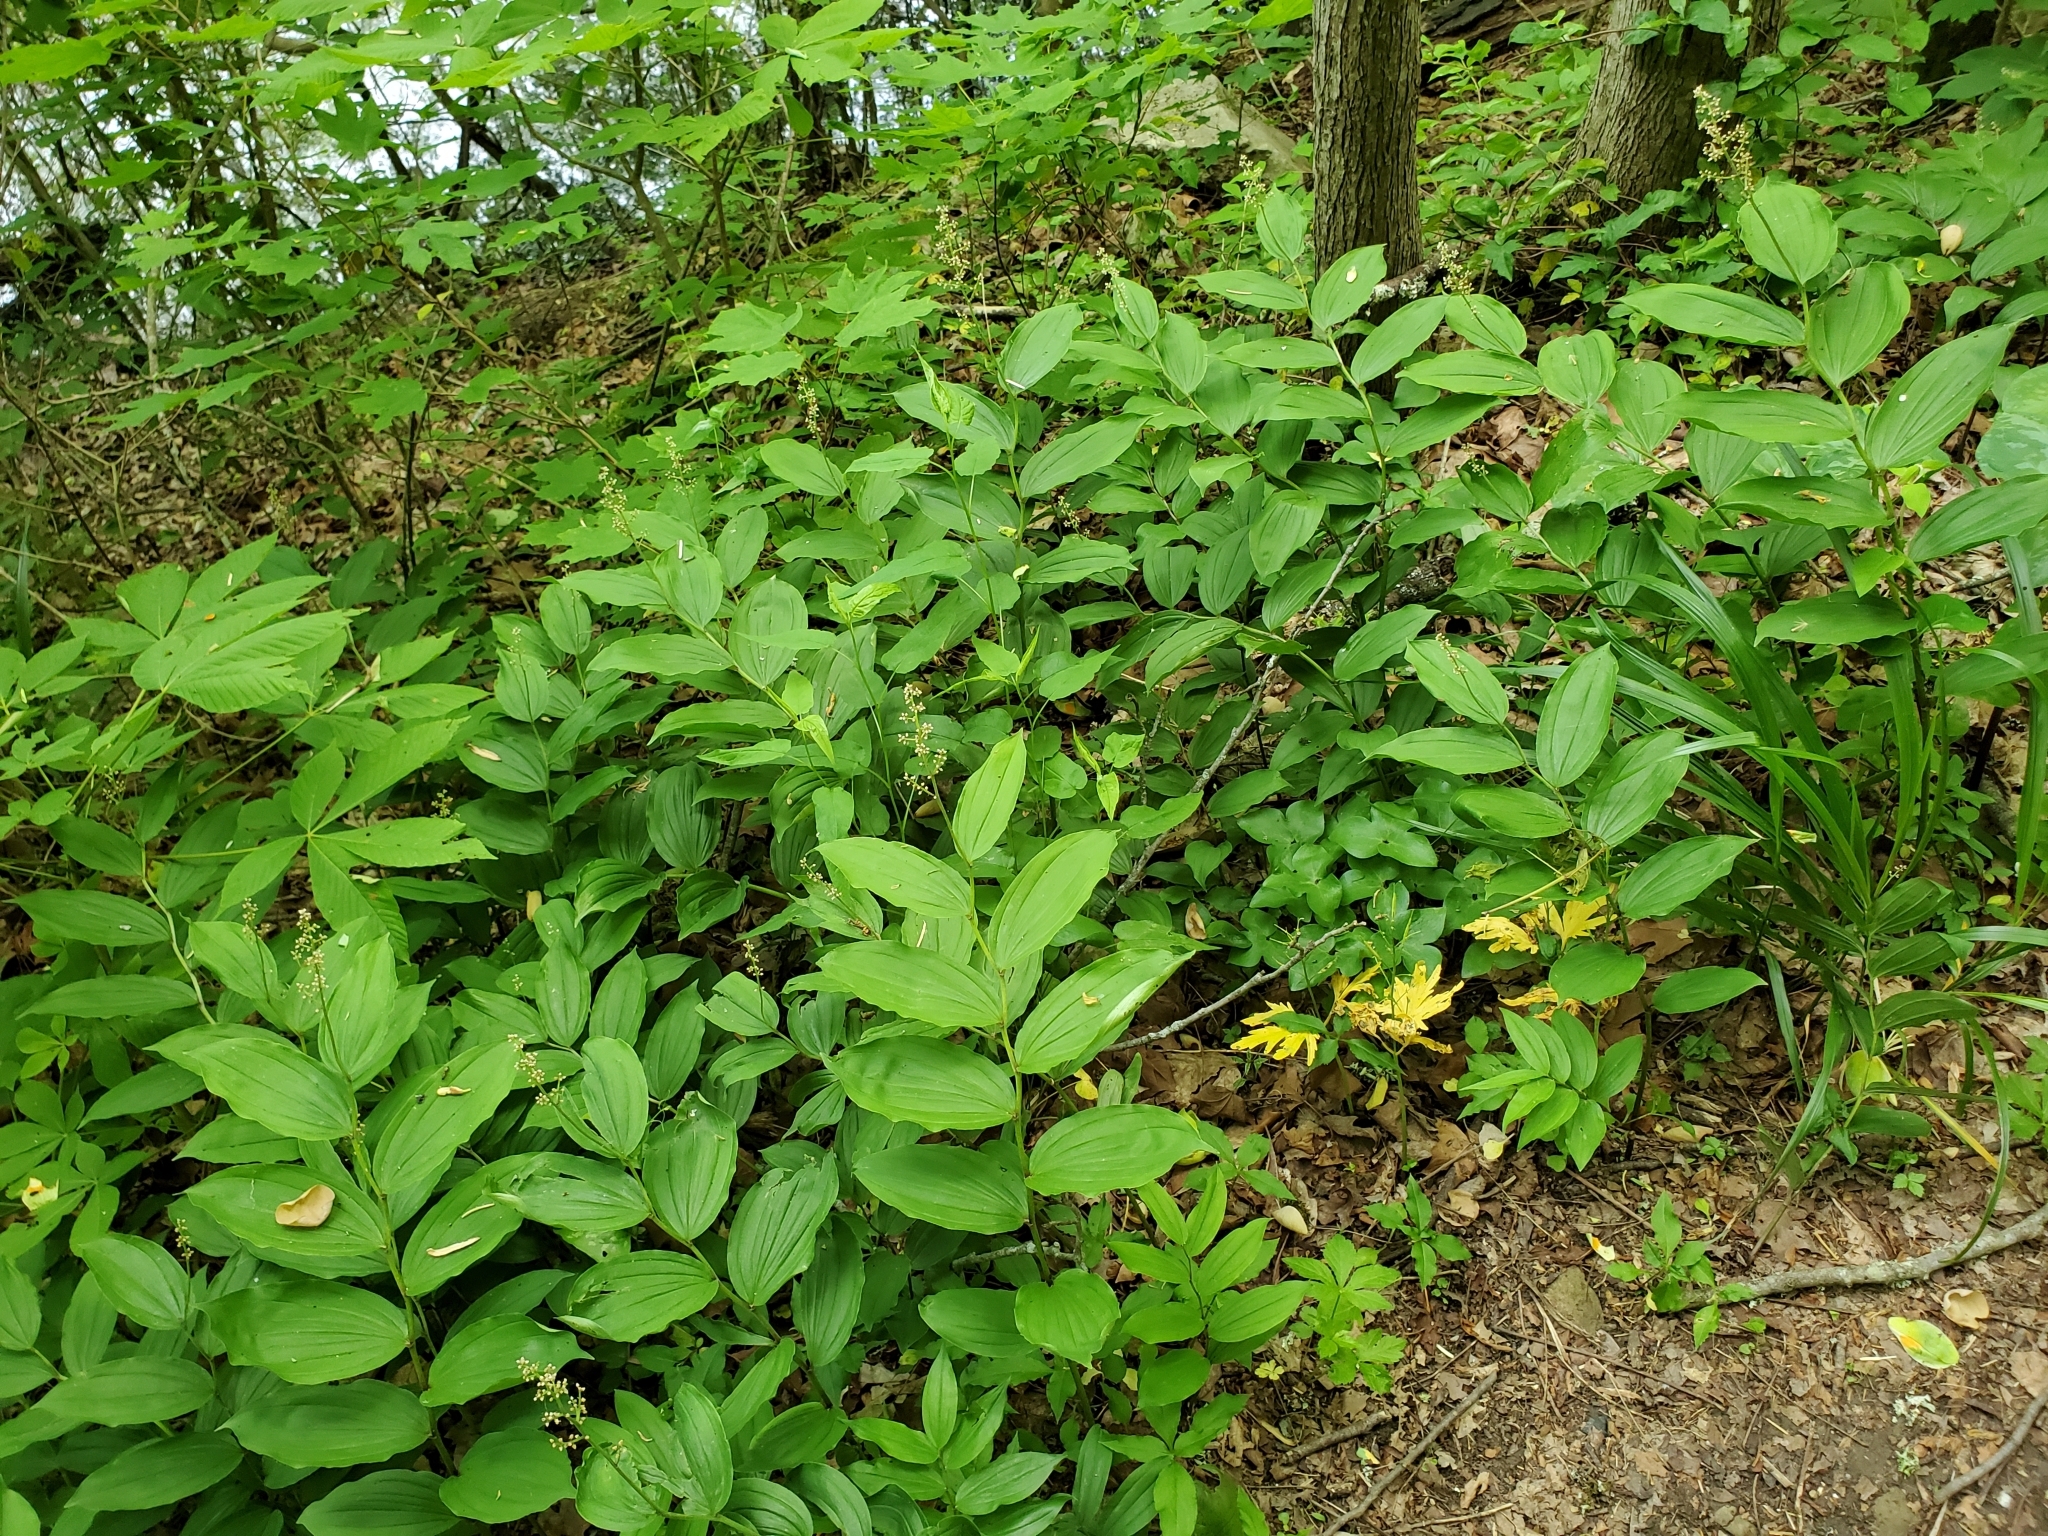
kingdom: Plantae
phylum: Tracheophyta
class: Liliopsida
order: Asparagales
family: Asparagaceae
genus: Maianthemum
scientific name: Maianthemum racemosum
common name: False spikenard
